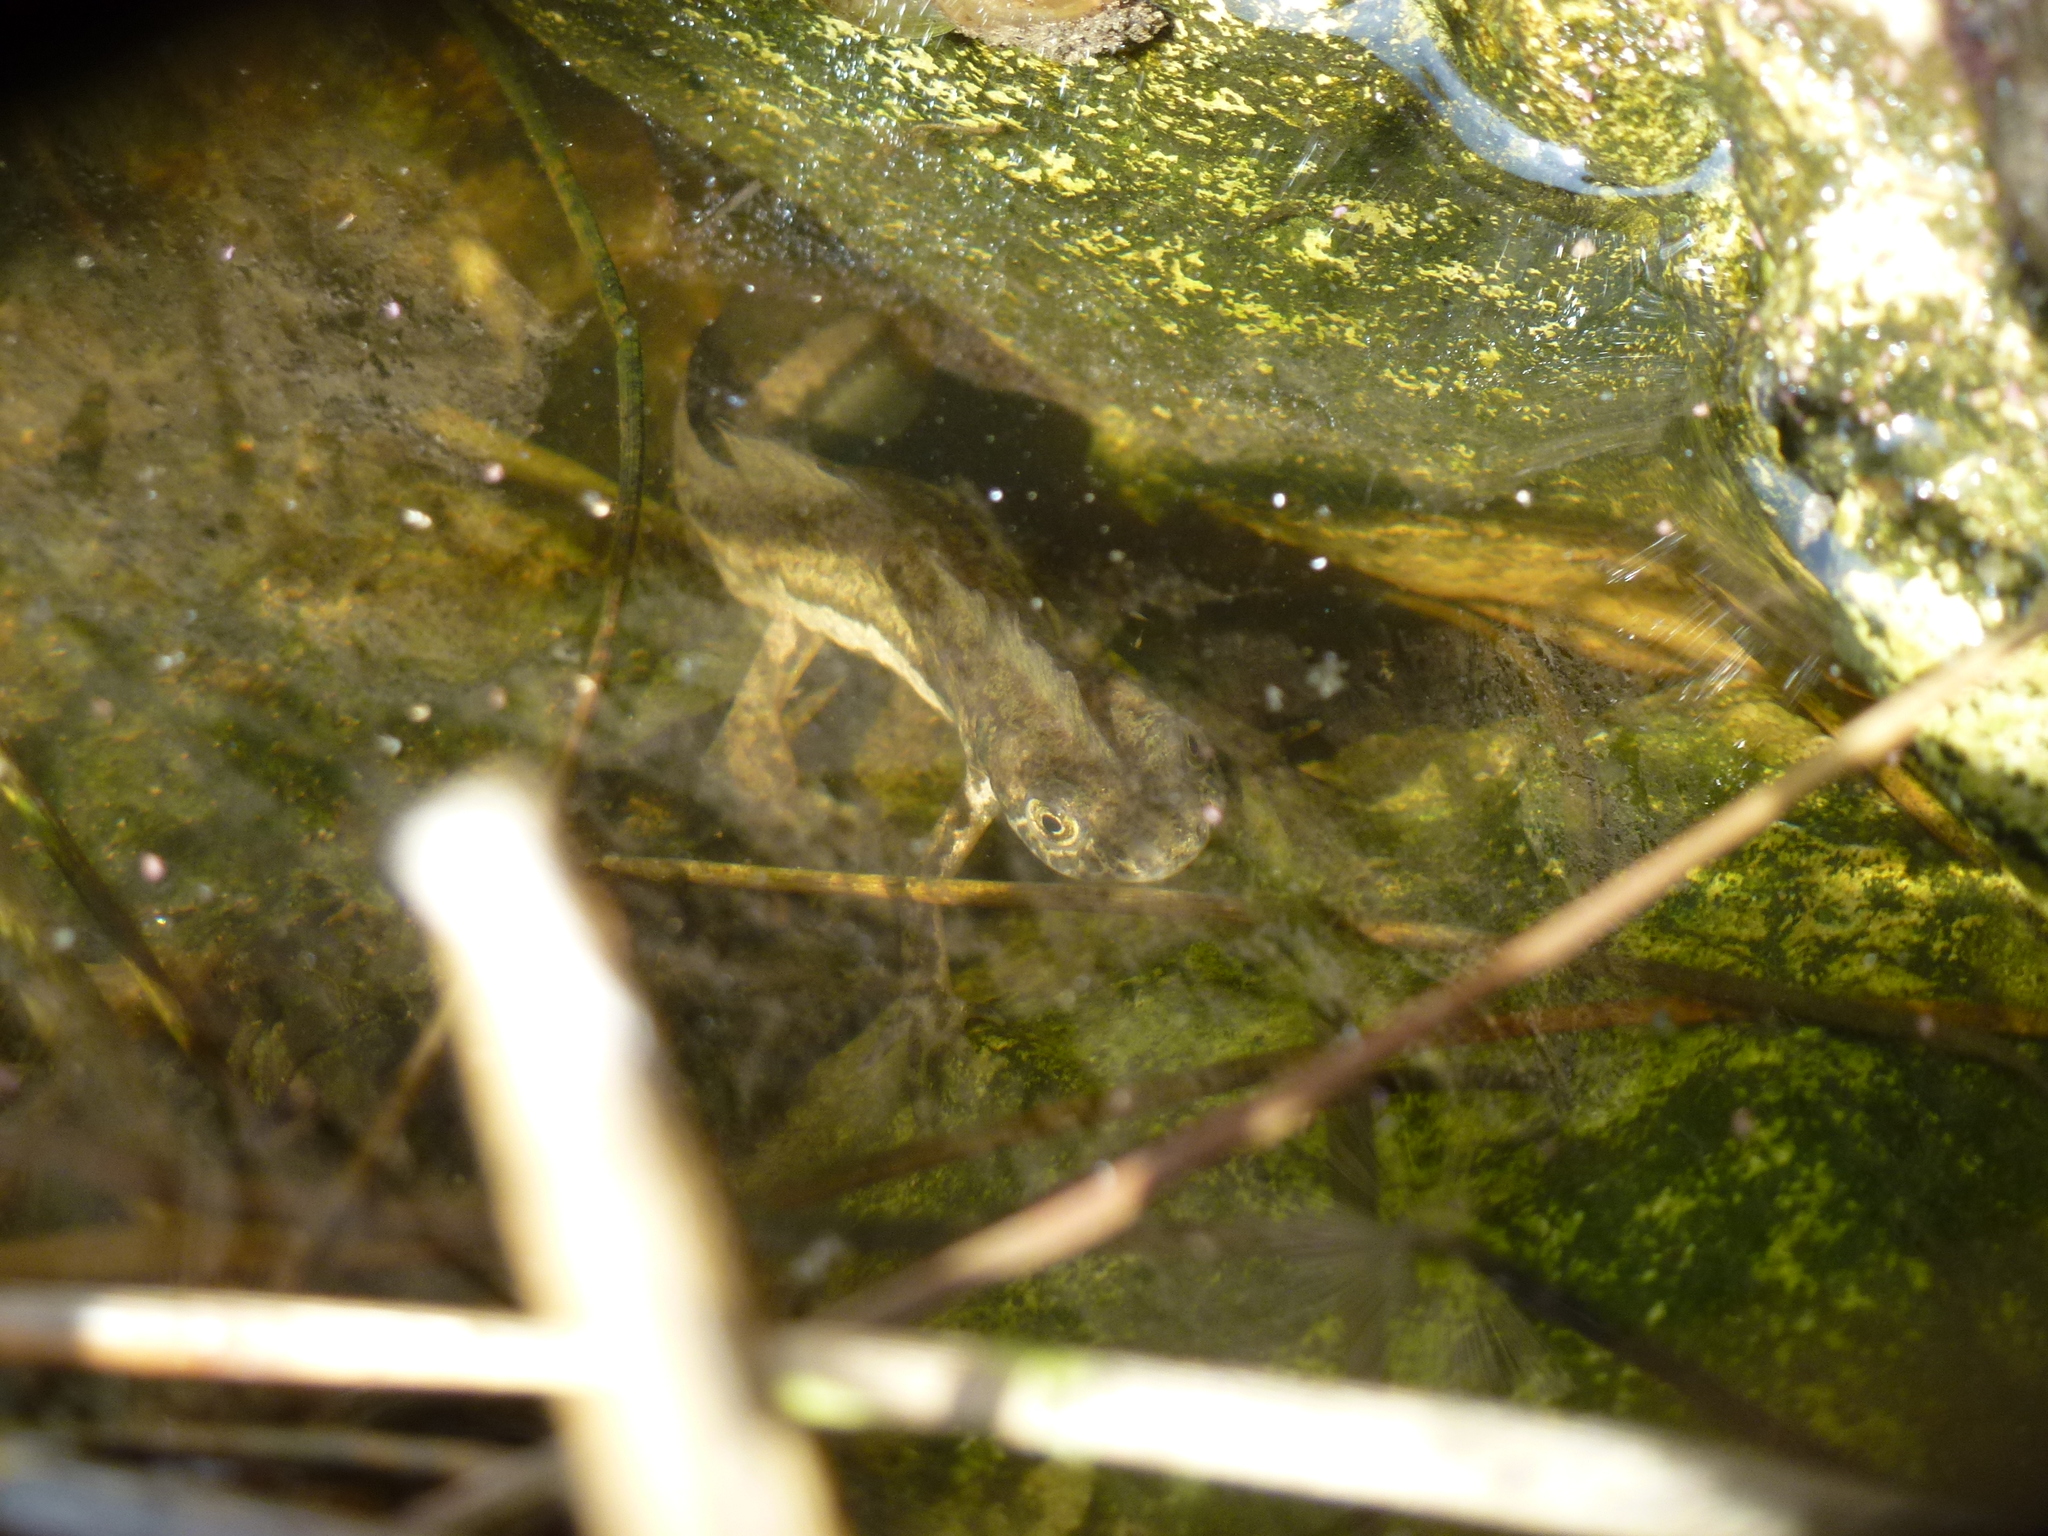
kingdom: Animalia
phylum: Chordata
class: Amphibia
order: Caudata
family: Salamandridae
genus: Ommatotriton
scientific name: Ommatotriton vittatus
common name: Banded newt
